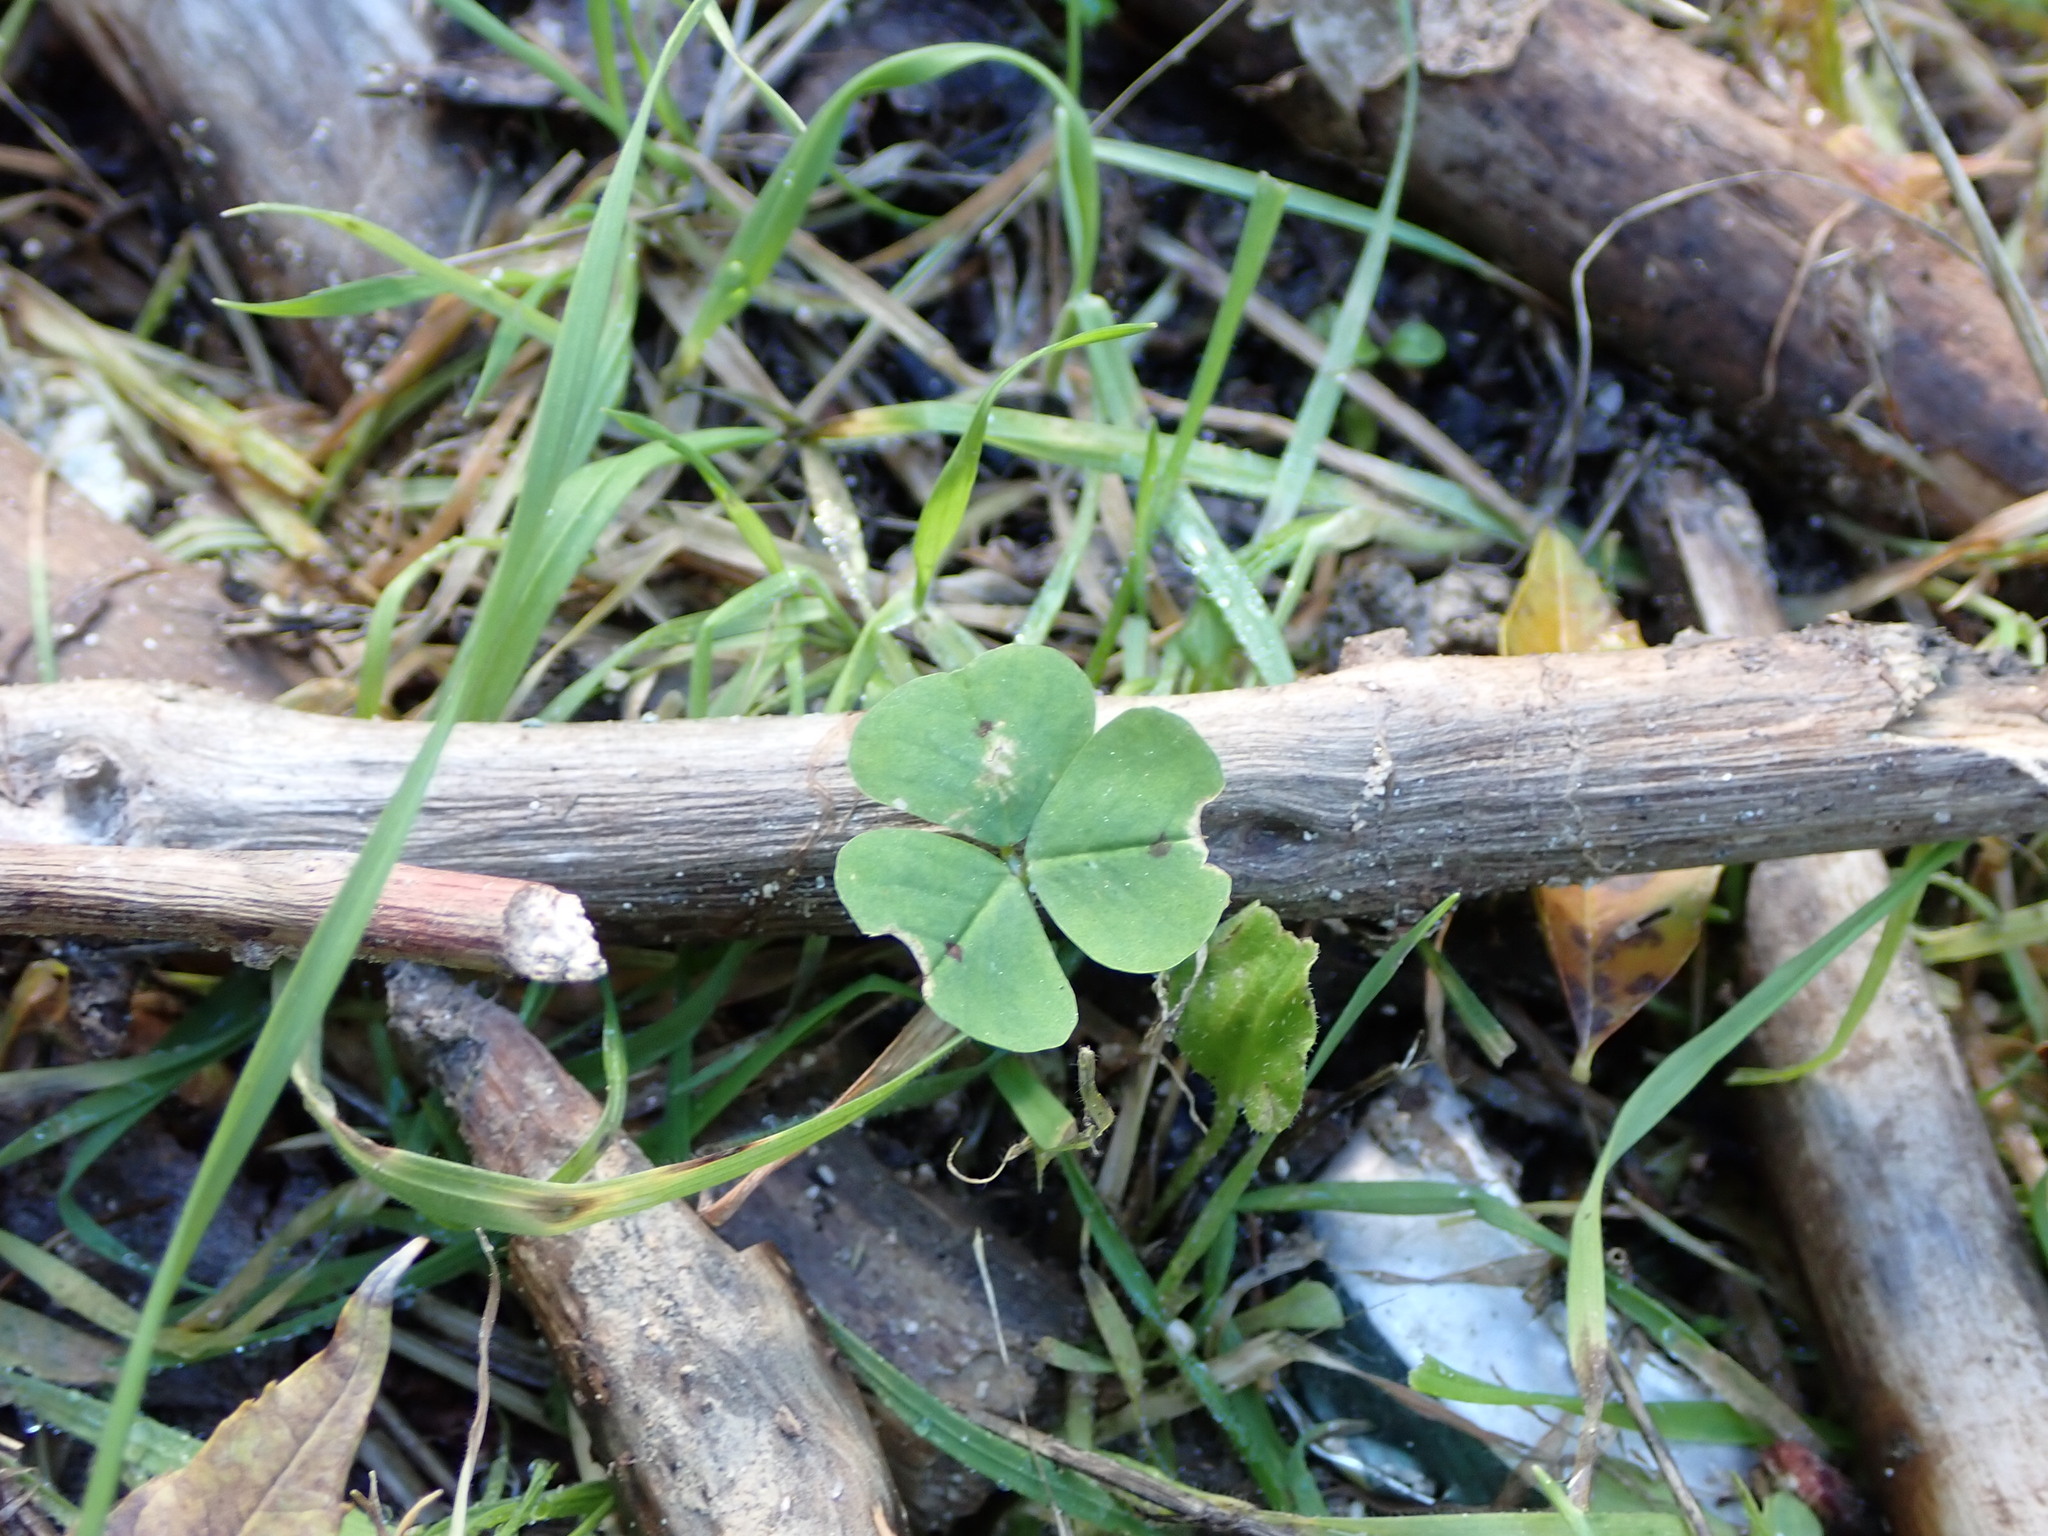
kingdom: Plantae
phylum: Tracheophyta
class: Magnoliopsida
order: Fabales
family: Fabaceae
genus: Medicago
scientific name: Medicago arabica
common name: Spotted medick
